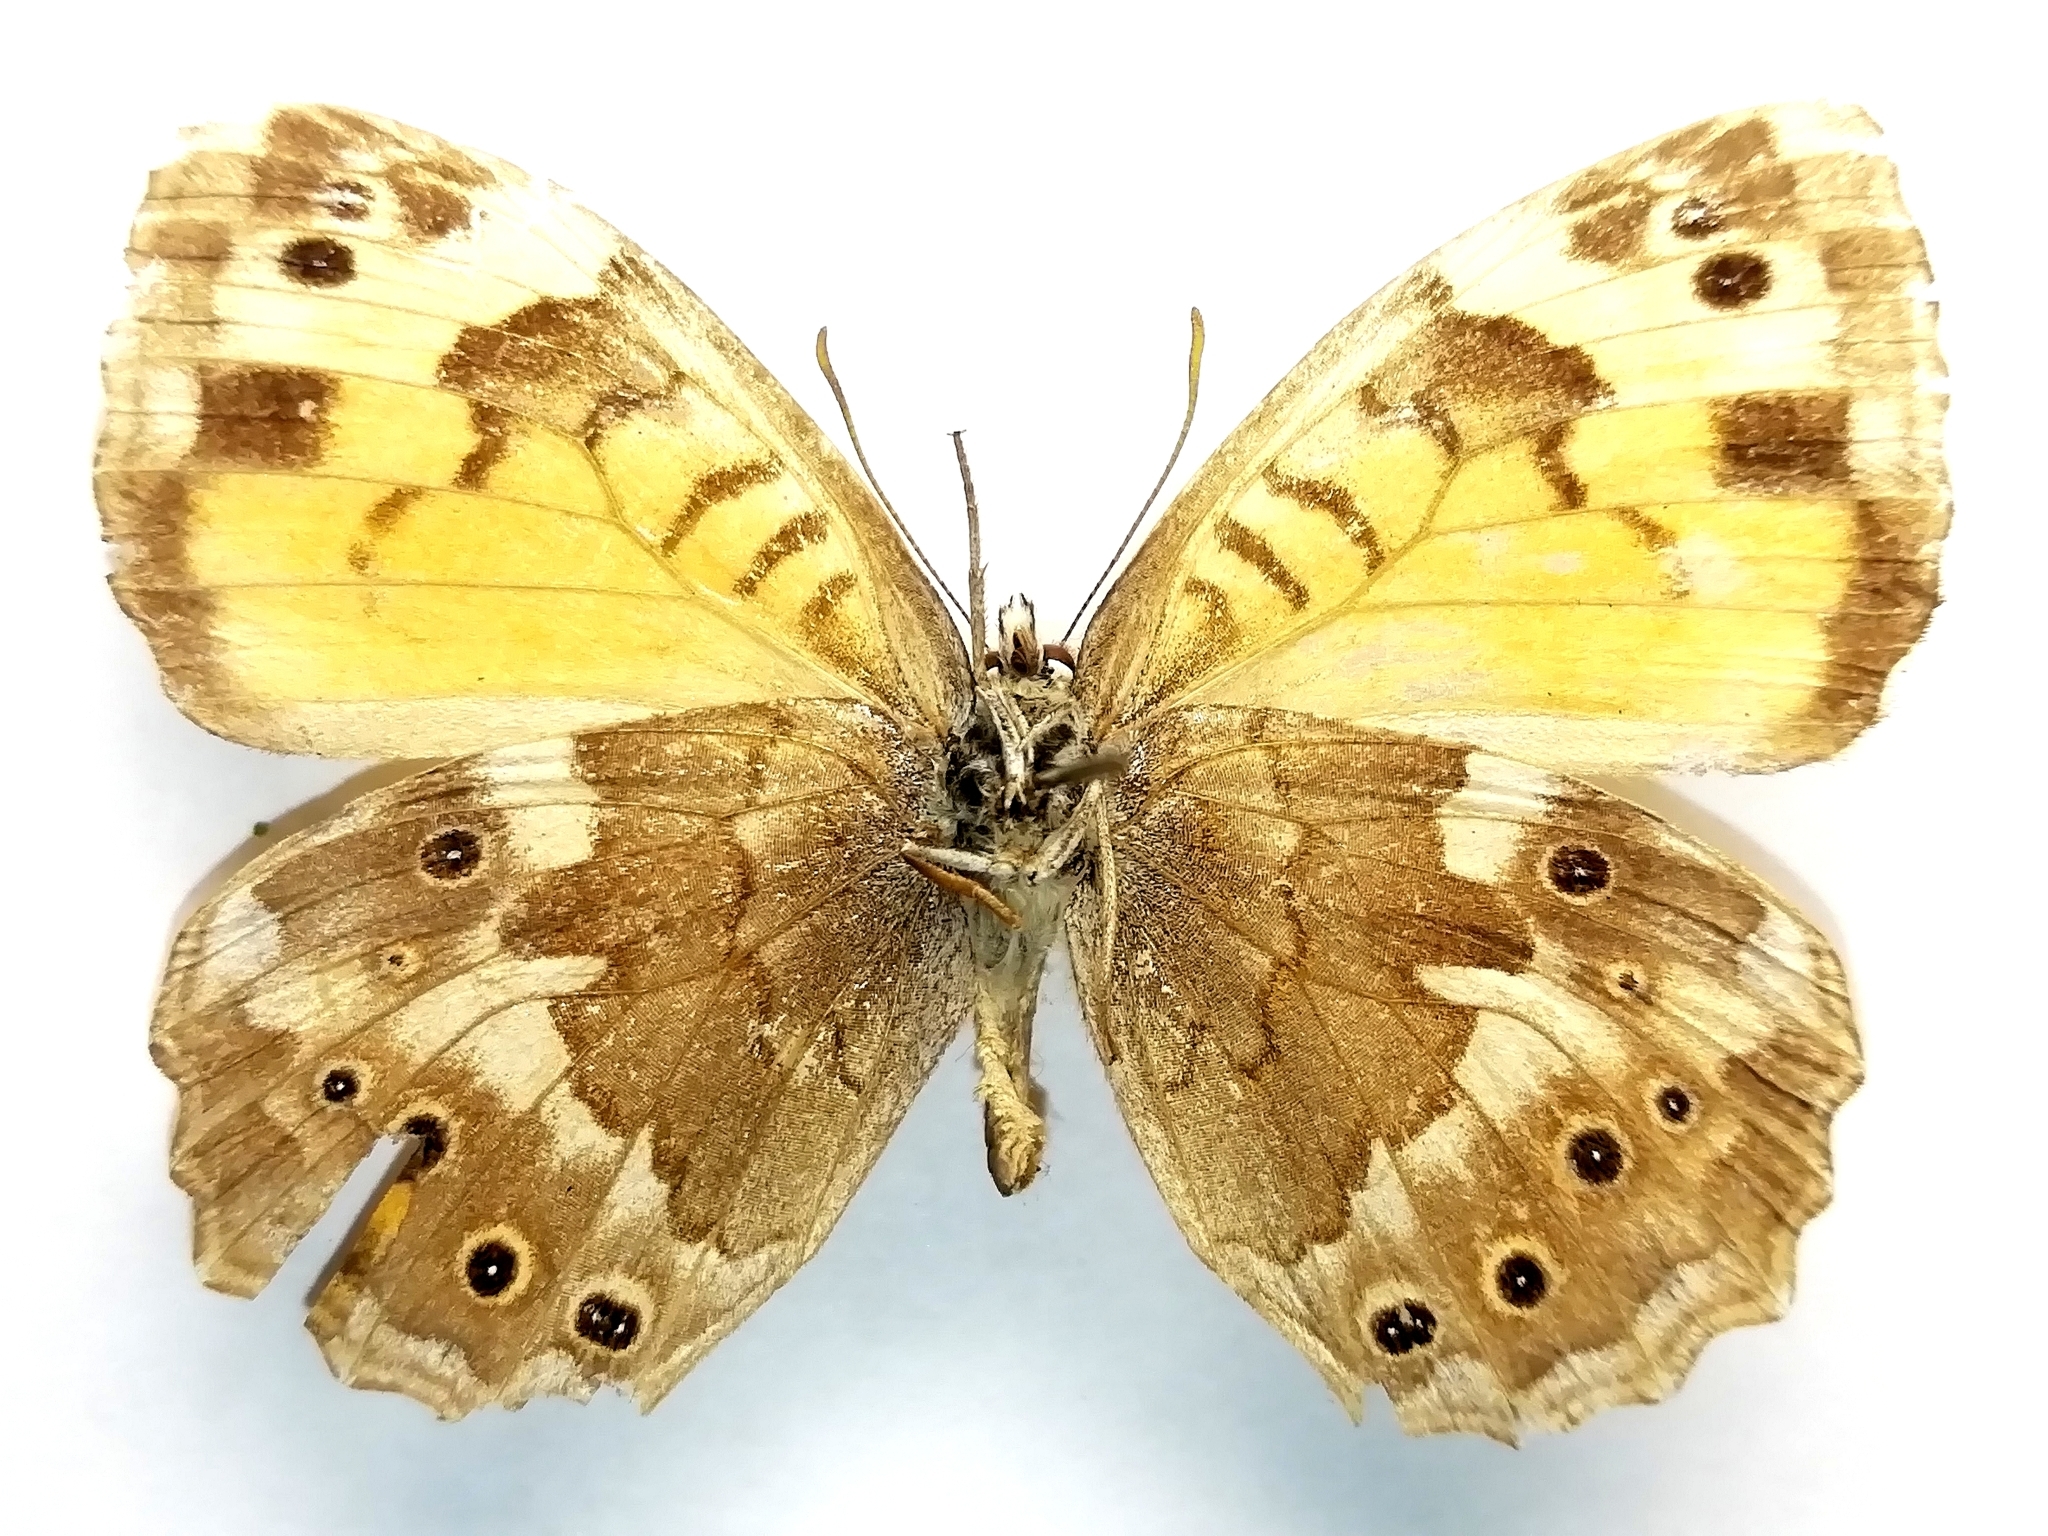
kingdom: Animalia
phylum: Arthropoda
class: Insecta
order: Lepidoptera
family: Nymphalidae
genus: Kirinia
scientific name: Kirinia eversmanni
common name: Yellow wall butterfly
